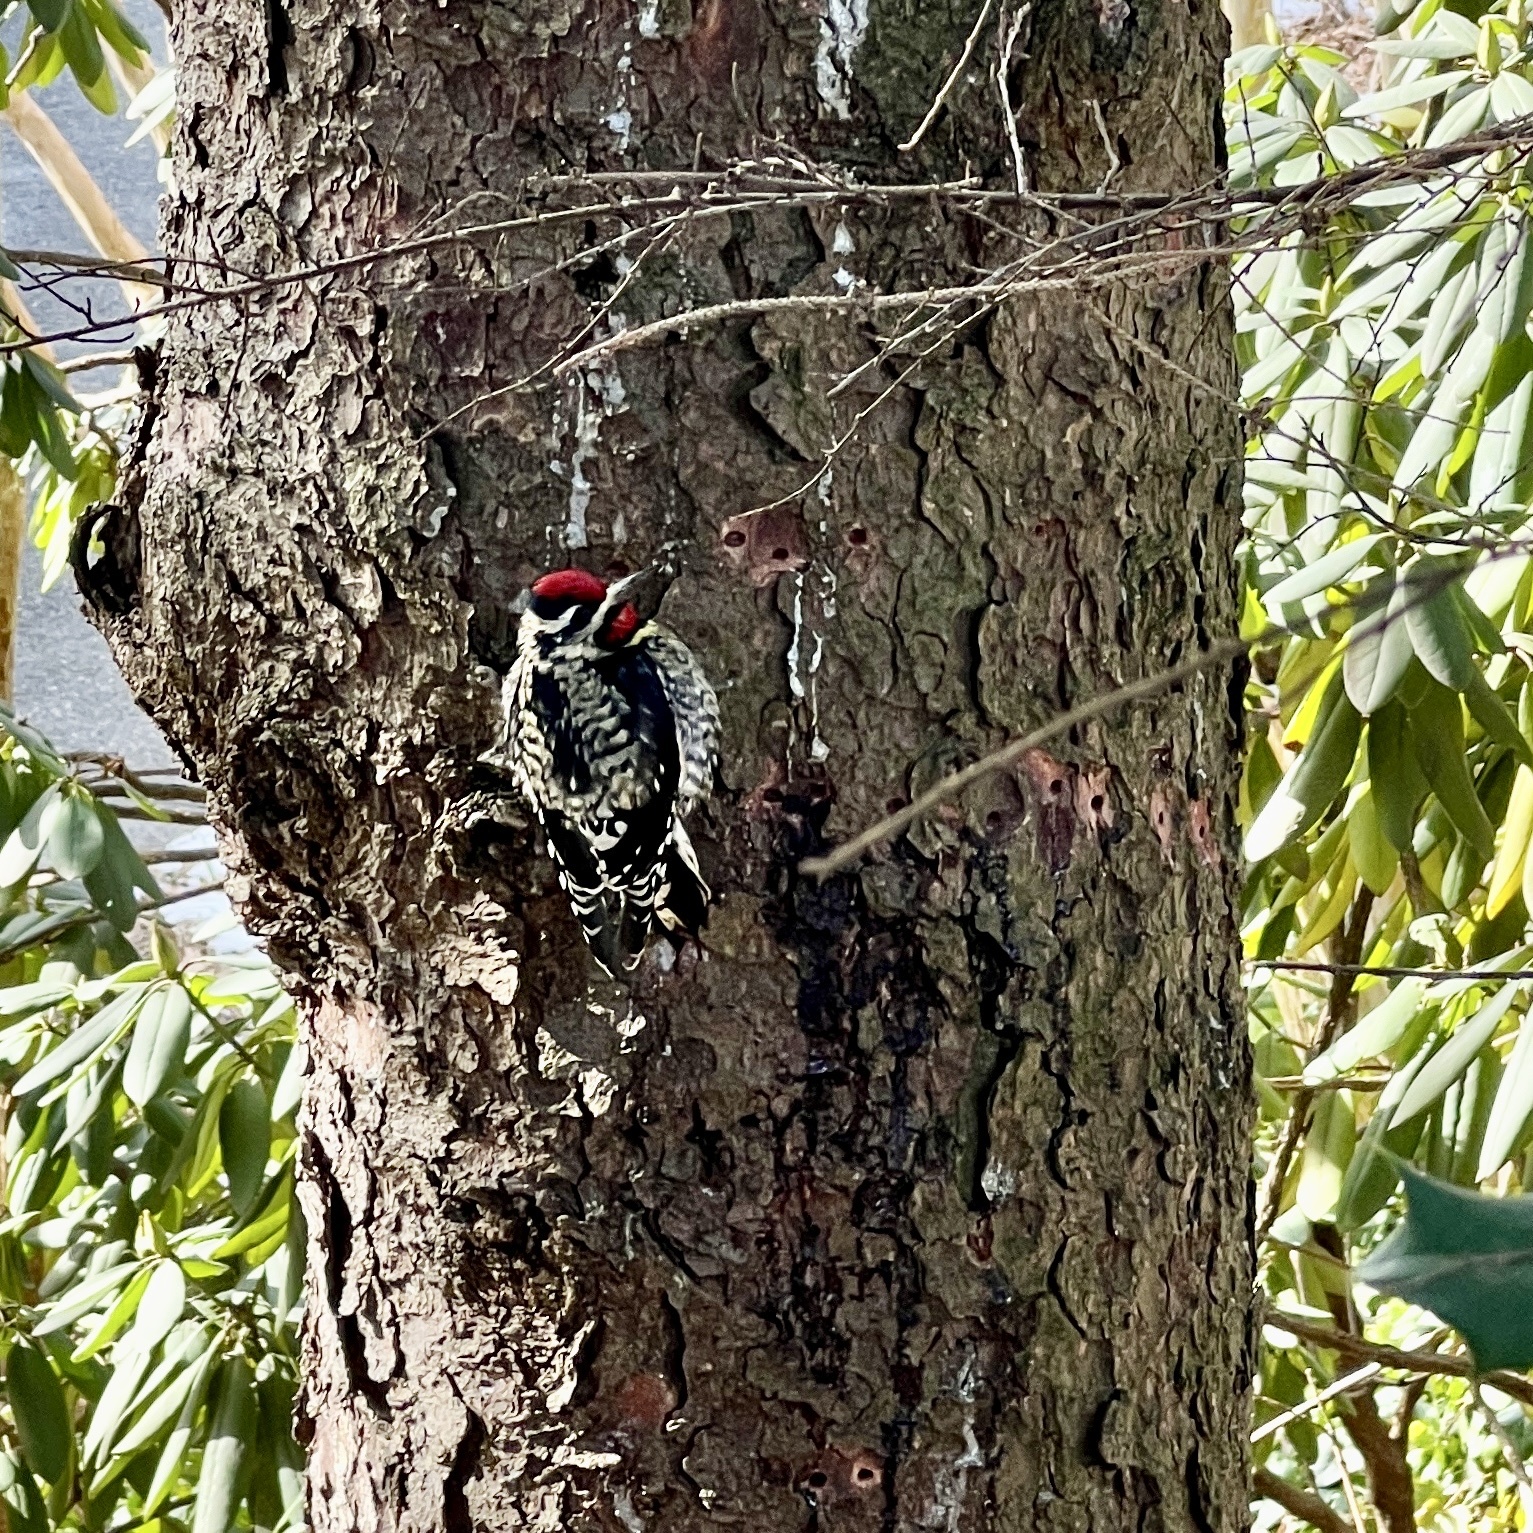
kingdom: Animalia
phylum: Chordata
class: Aves
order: Piciformes
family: Picidae
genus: Sphyrapicus
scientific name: Sphyrapicus varius
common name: Yellow-bellied sapsucker
